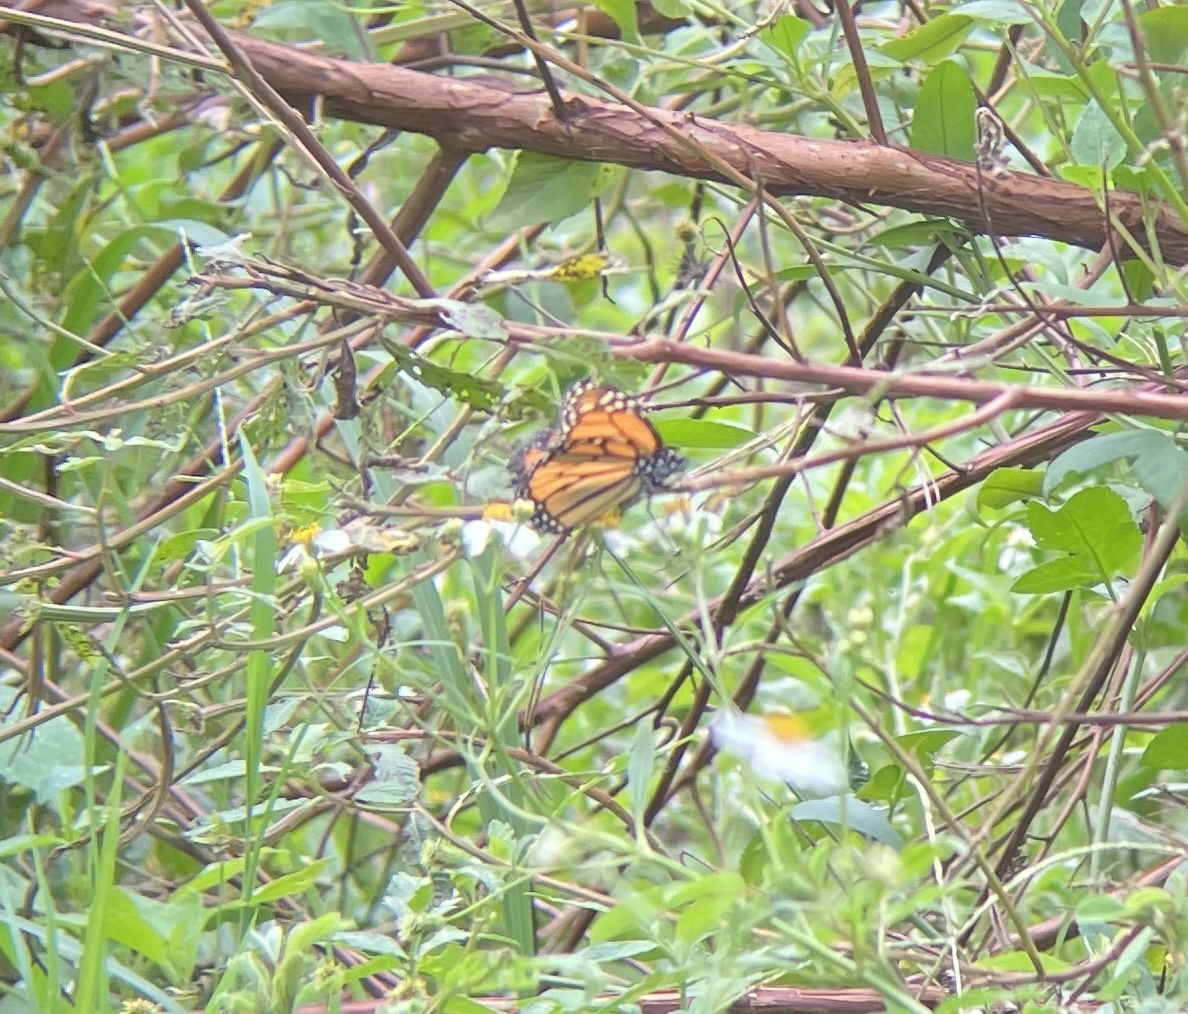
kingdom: Animalia
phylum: Arthropoda
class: Insecta
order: Lepidoptera
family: Nymphalidae
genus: Danaus
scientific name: Danaus plexippus
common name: Monarch
